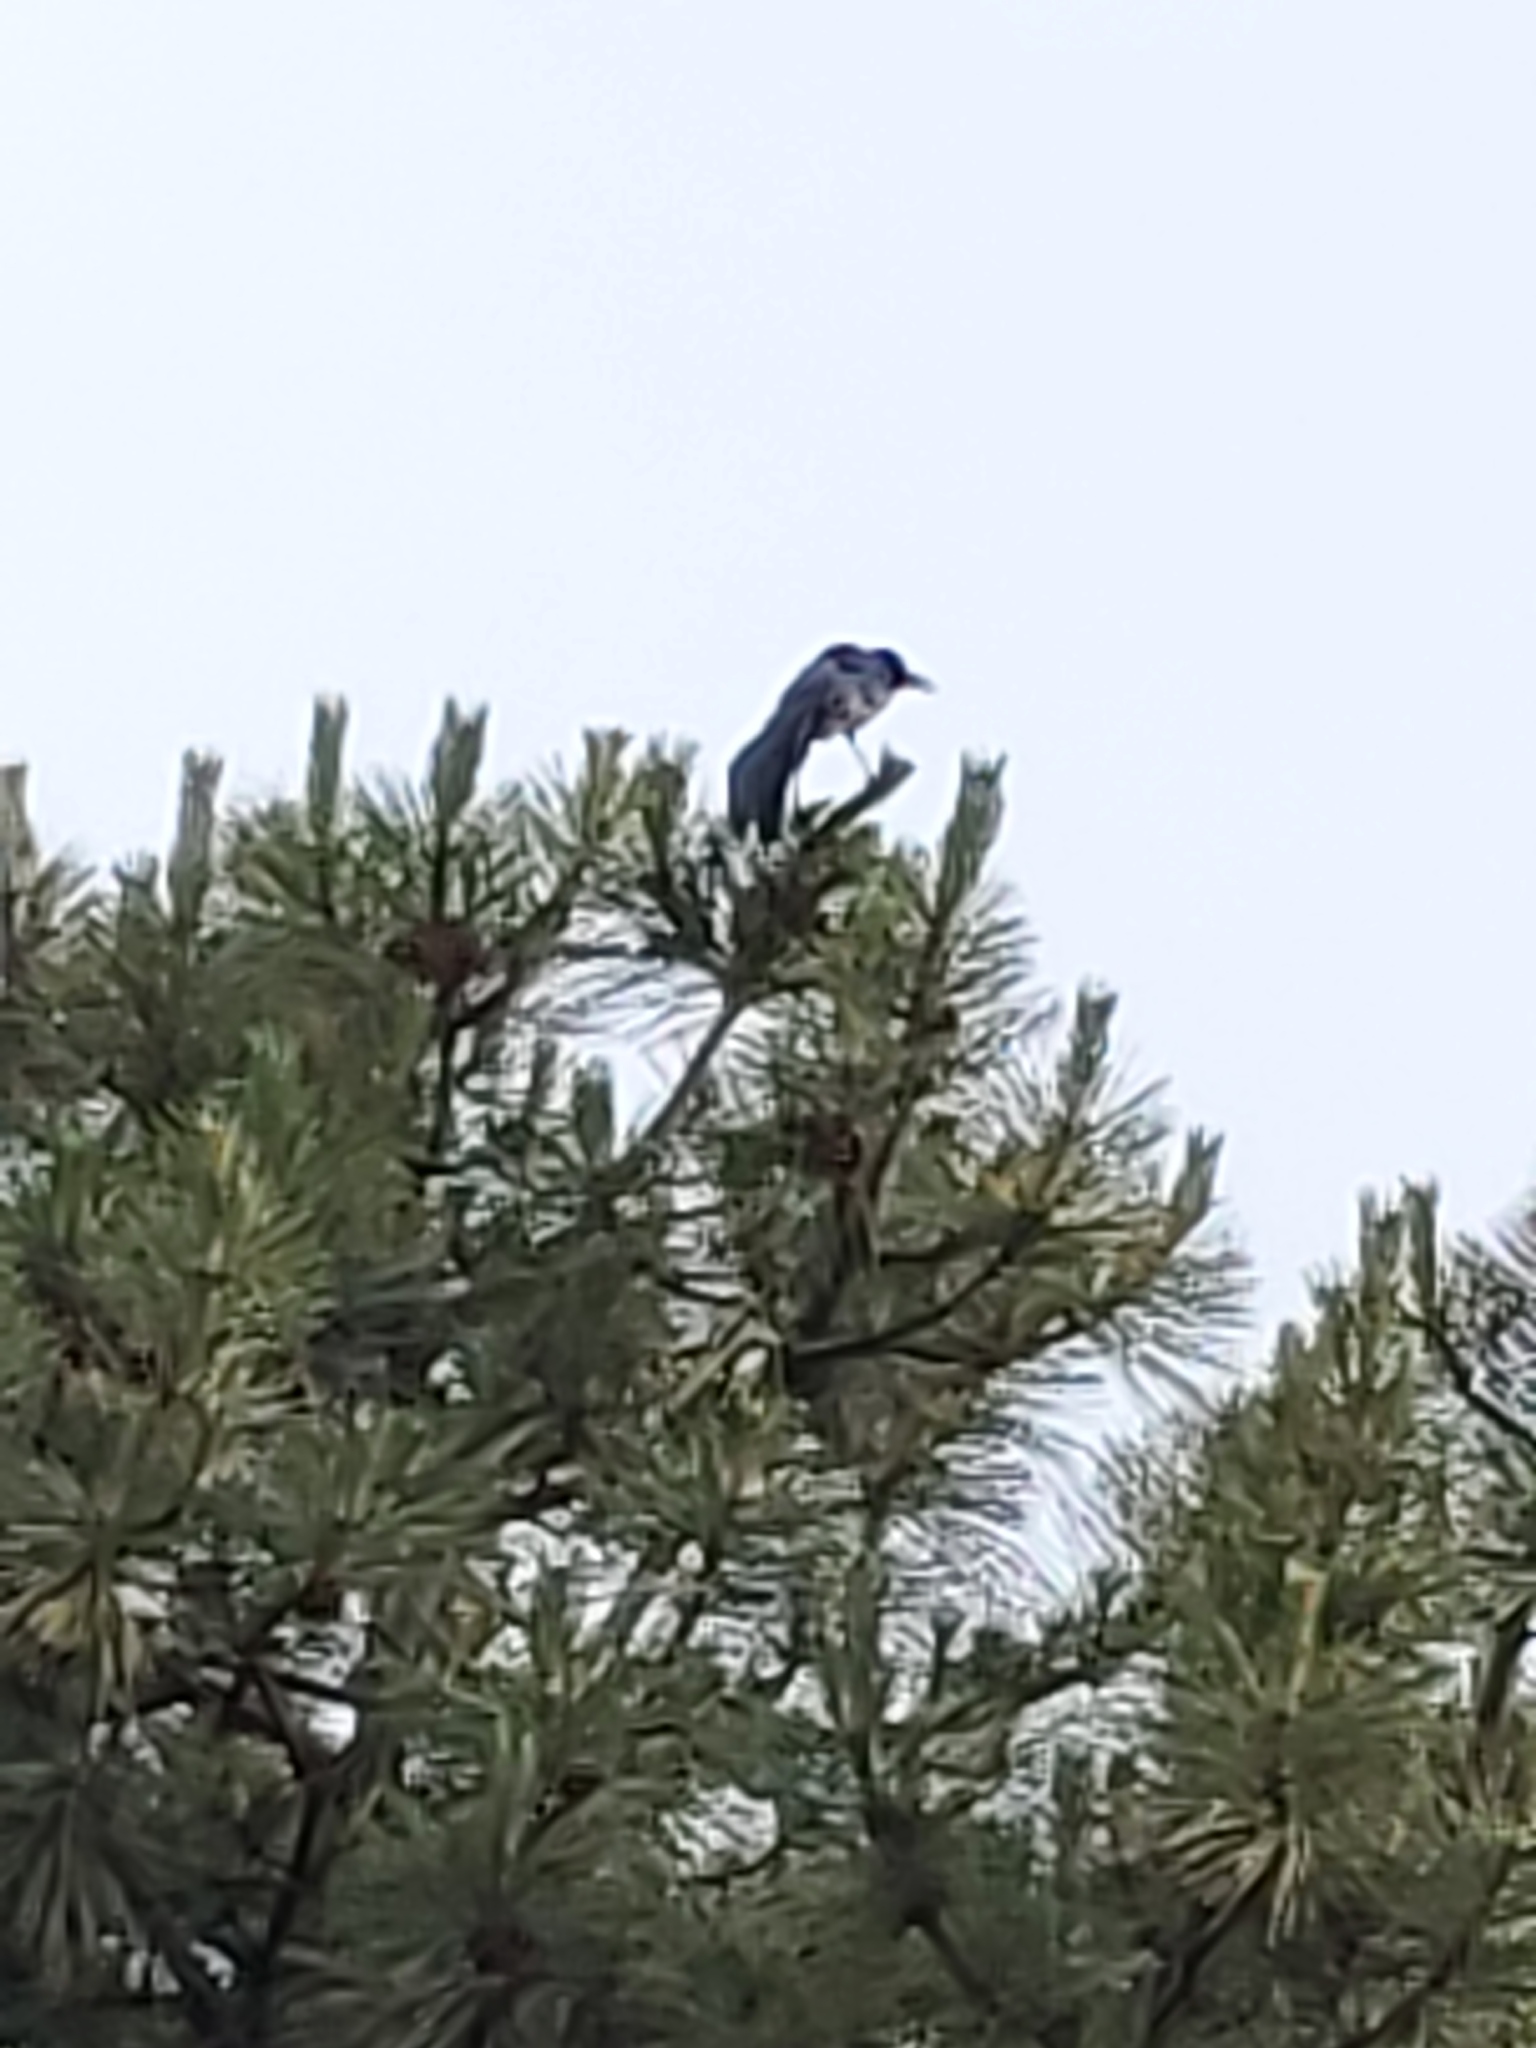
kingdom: Animalia
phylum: Chordata
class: Aves
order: Passeriformes
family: Icteridae
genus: Quiscalus
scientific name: Quiscalus mexicanus
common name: Great-tailed grackle
